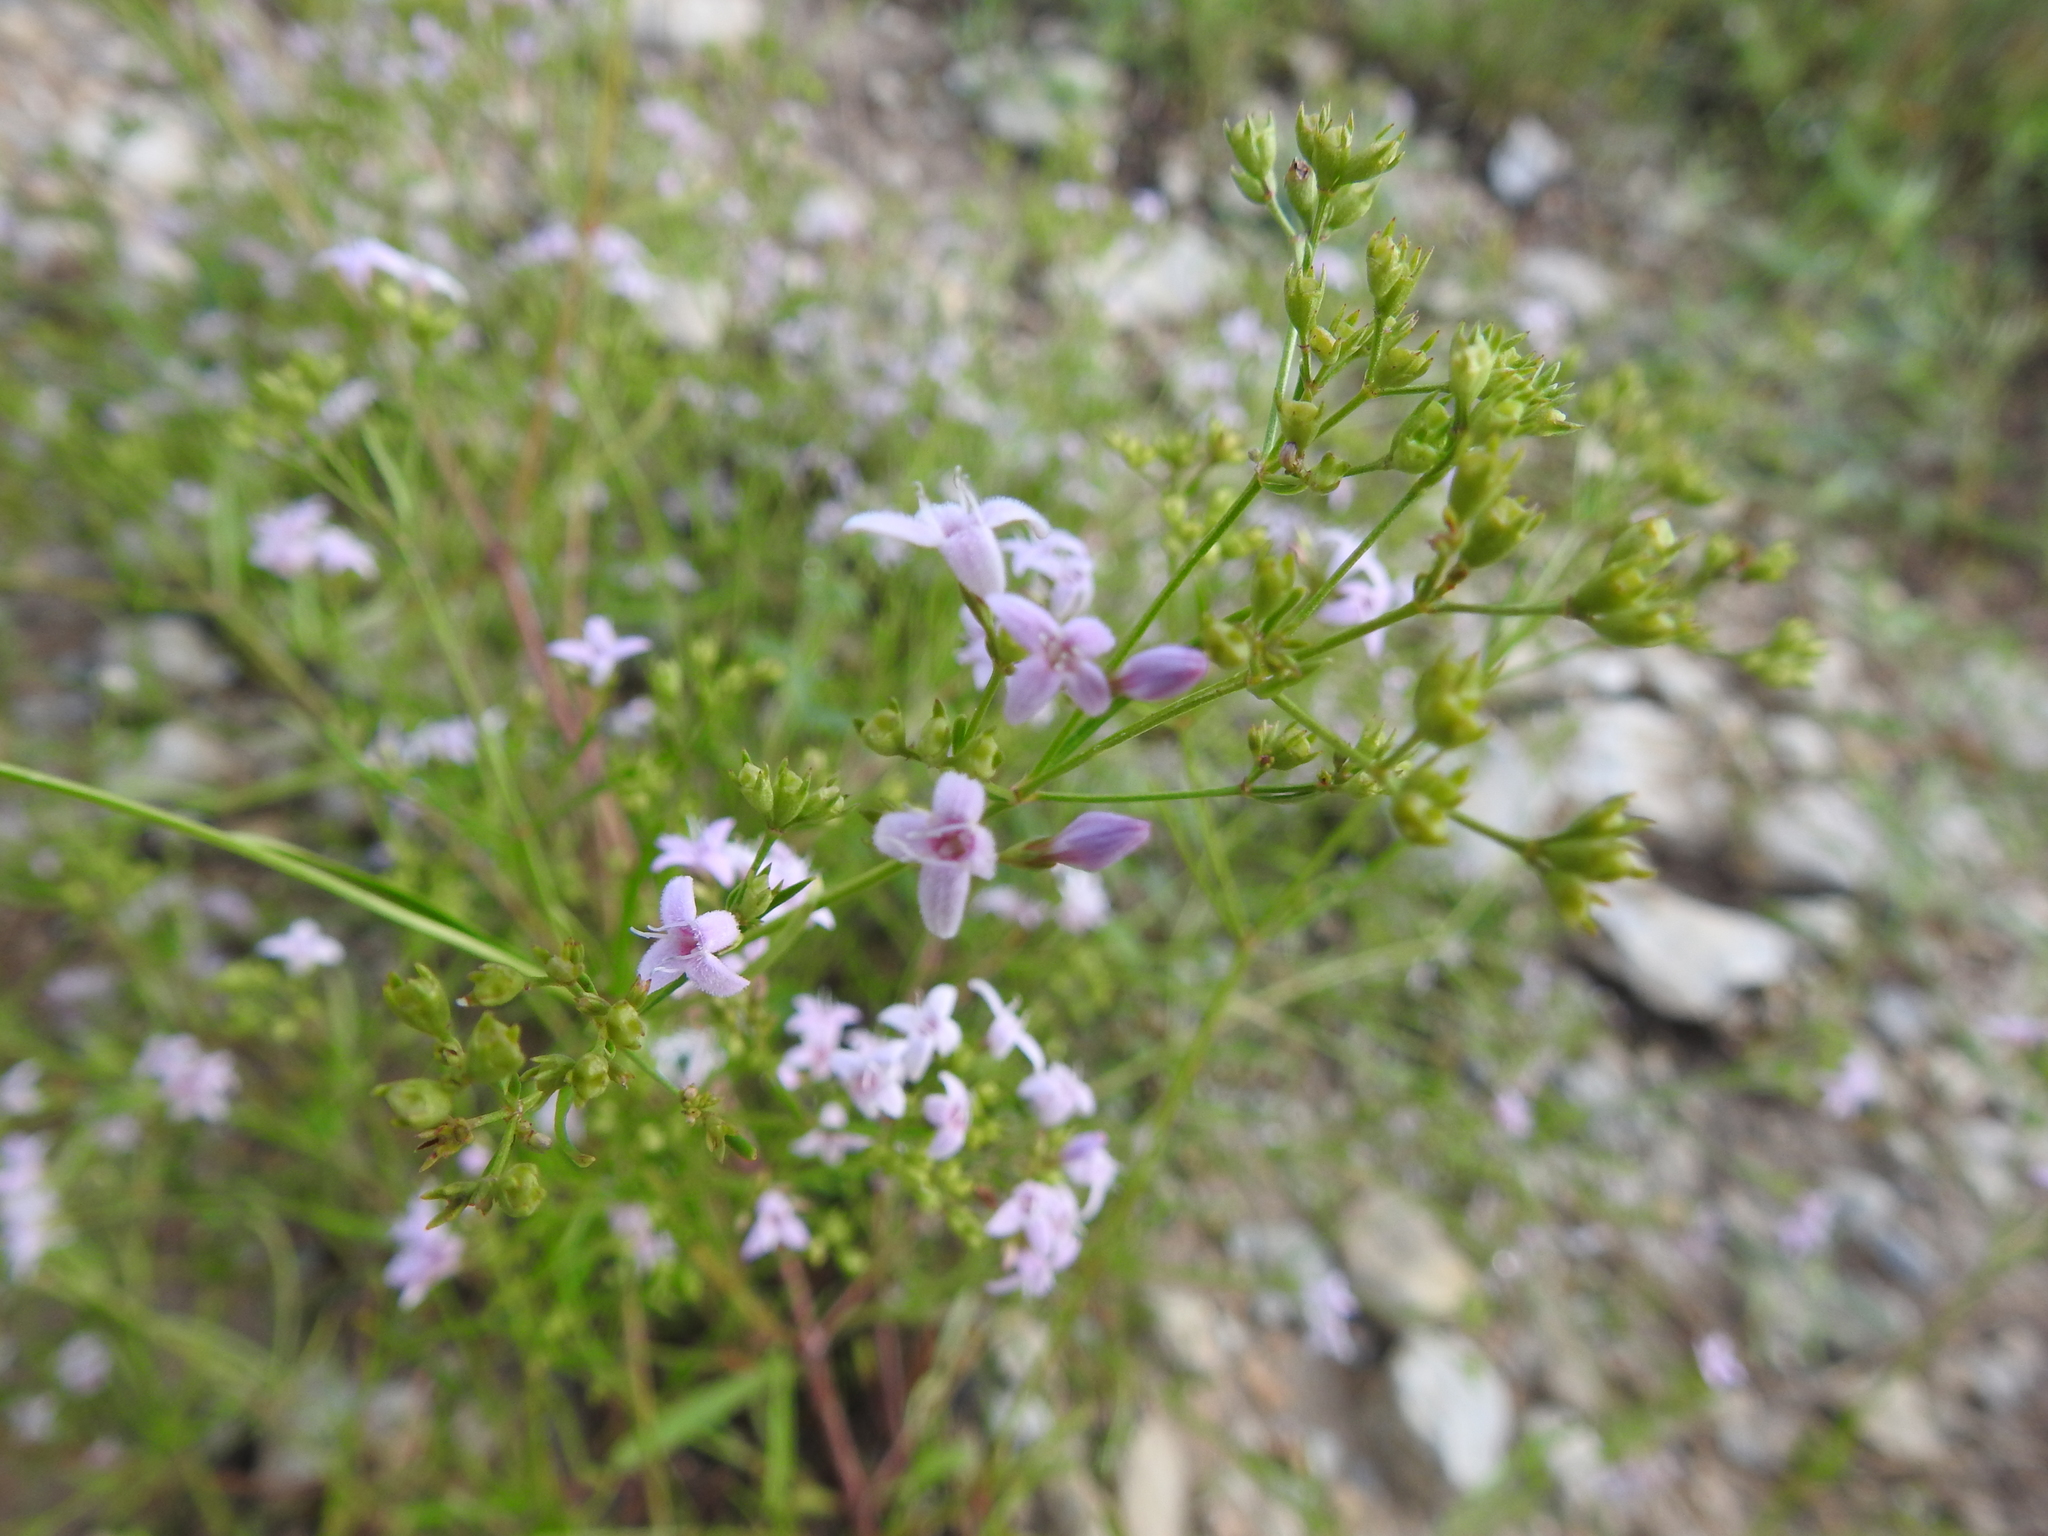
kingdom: Plantae
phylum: Tracheophyta
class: Magnoliopsida
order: Gentianales
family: Rubiaceae
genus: Stenaria
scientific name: Stenaria nigricans
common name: Diamondflowers
